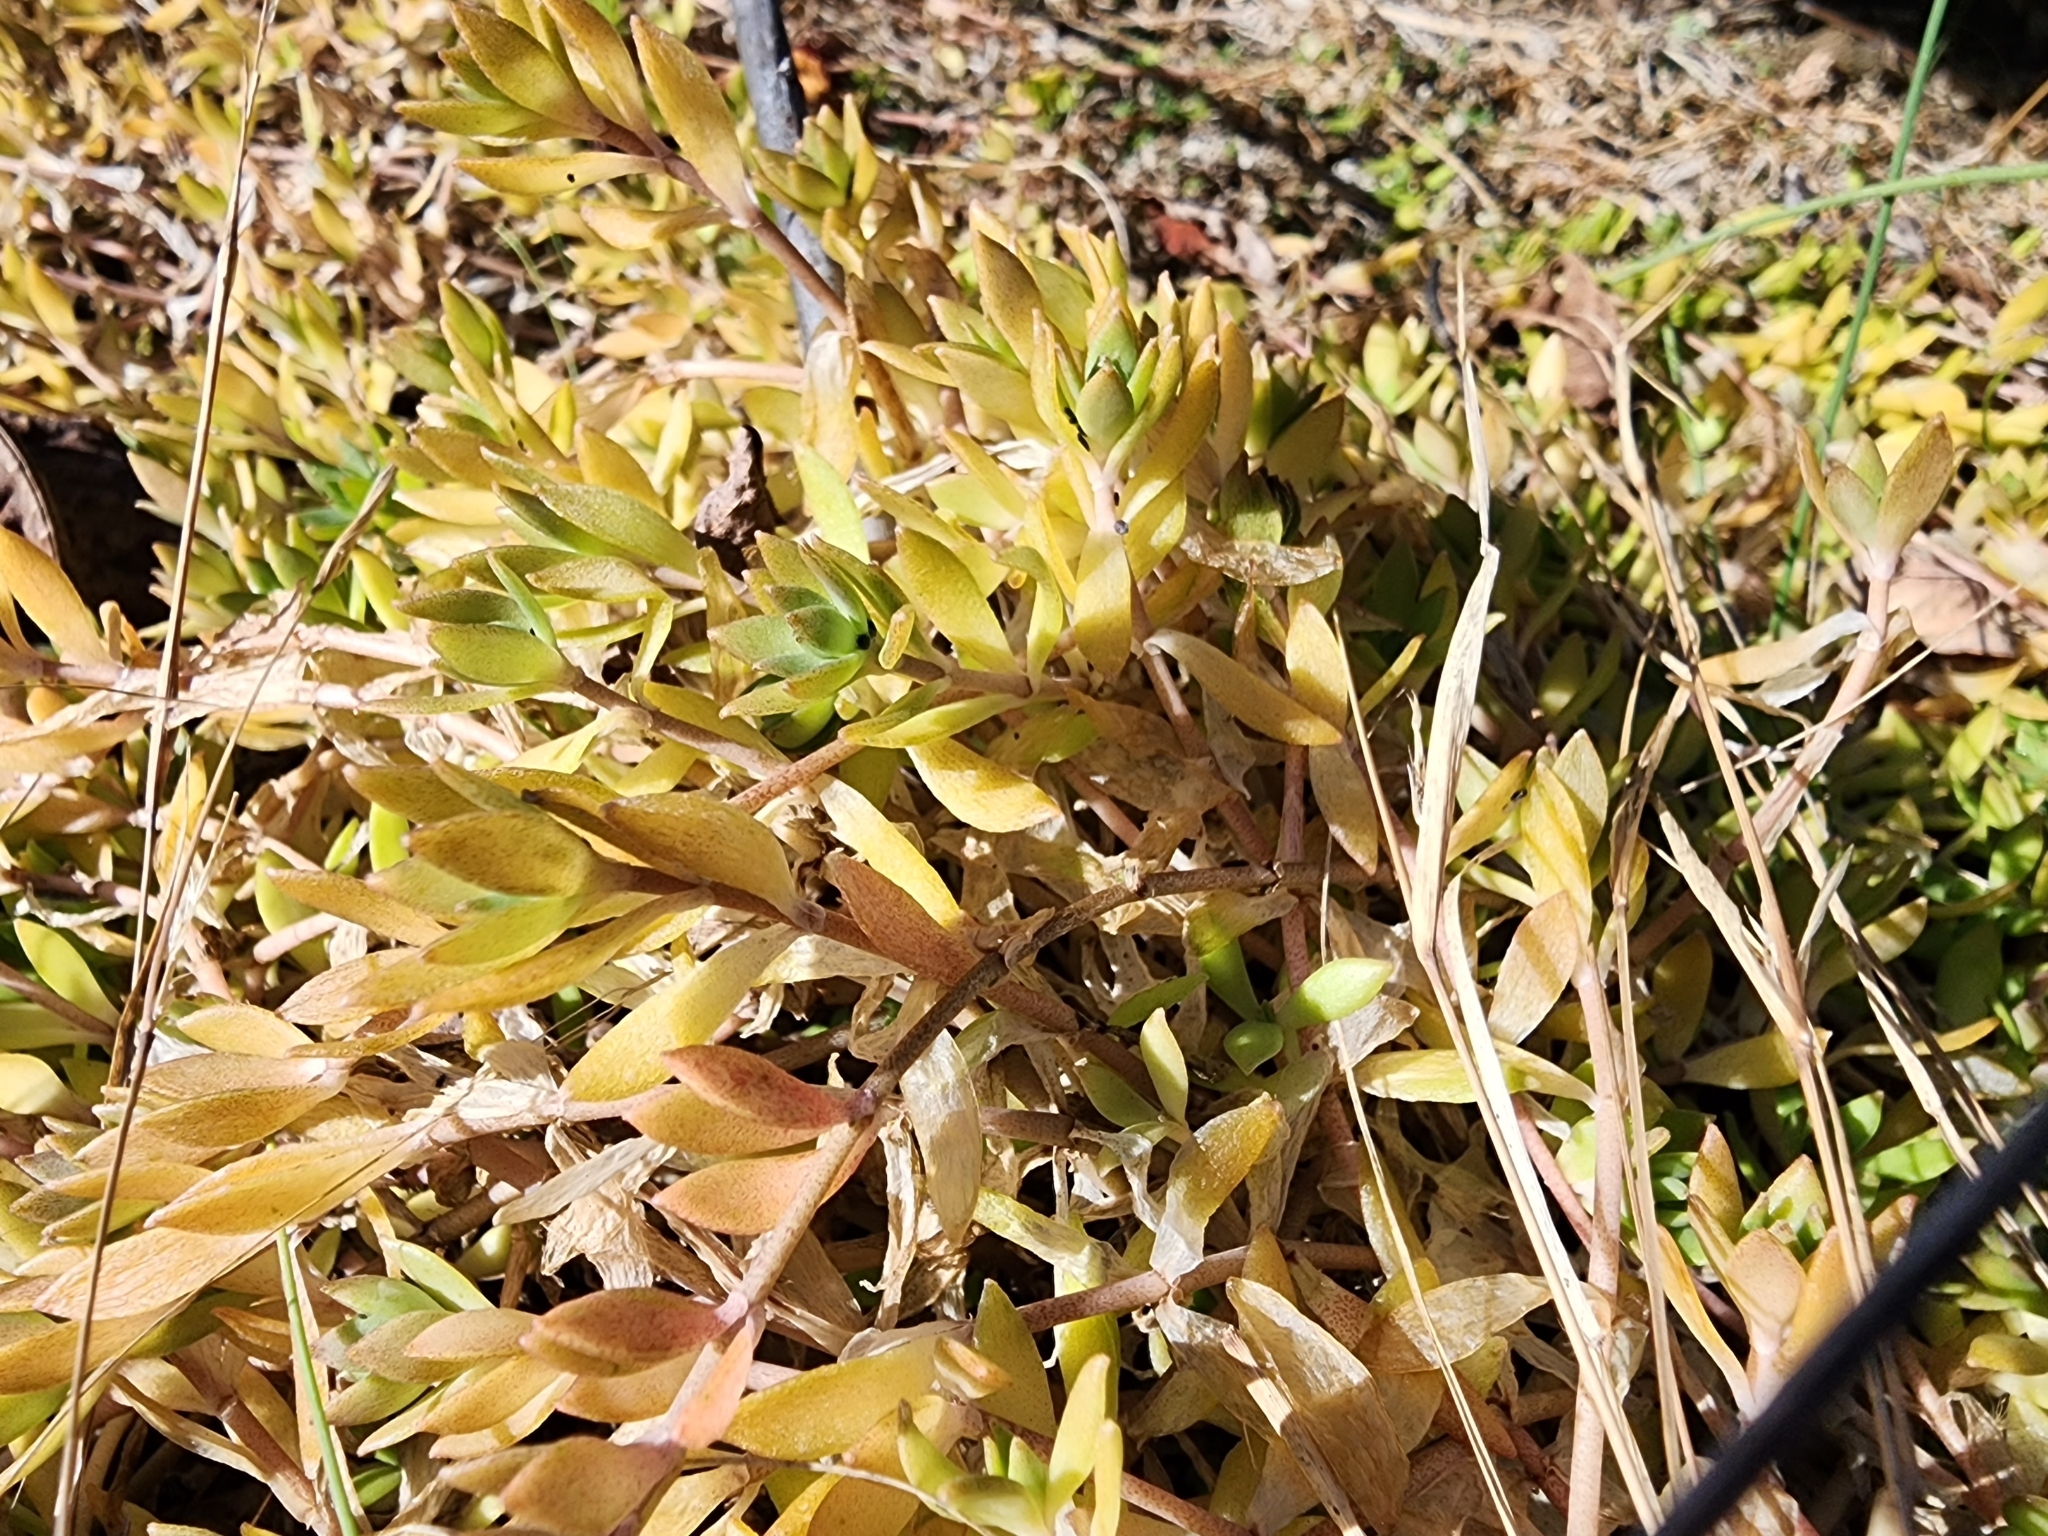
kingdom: Plantae
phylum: Tracheophyta
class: Magnoliopsida
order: Saxifragales
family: Crassulaceae
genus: Sedum
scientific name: Sedum sarmentosum
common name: Stringy stonecrop
